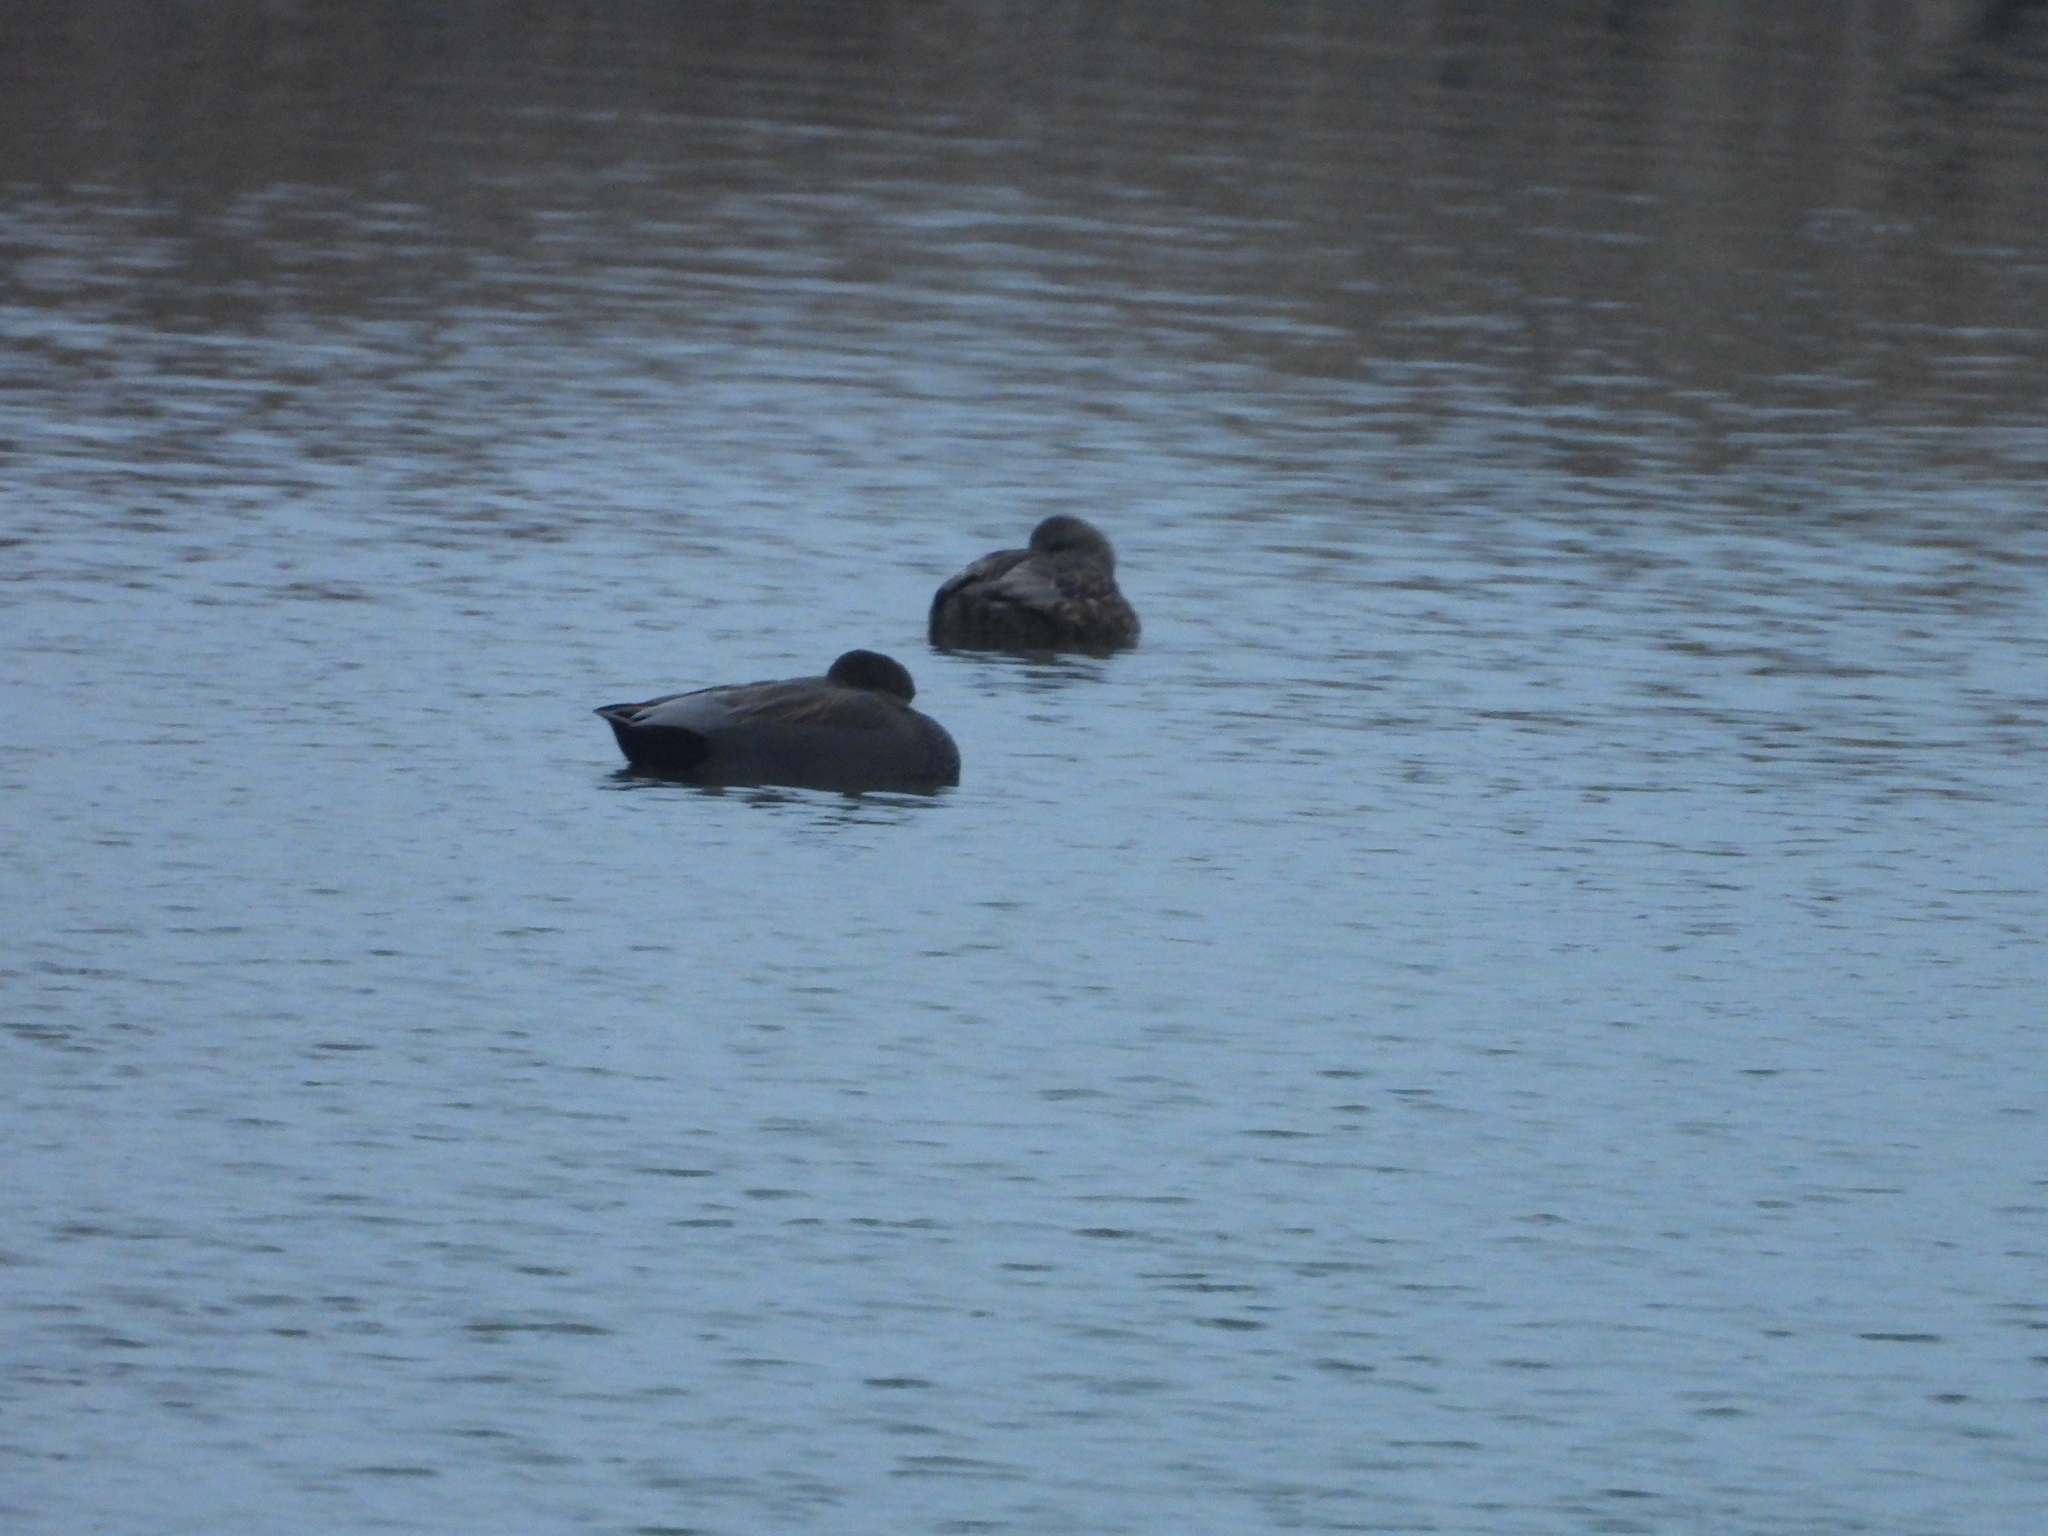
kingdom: Animalia
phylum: Chordata
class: Aves
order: Anseriformes
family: Anatidae
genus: Mareca
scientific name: Mareca strepera
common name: Gadwall
